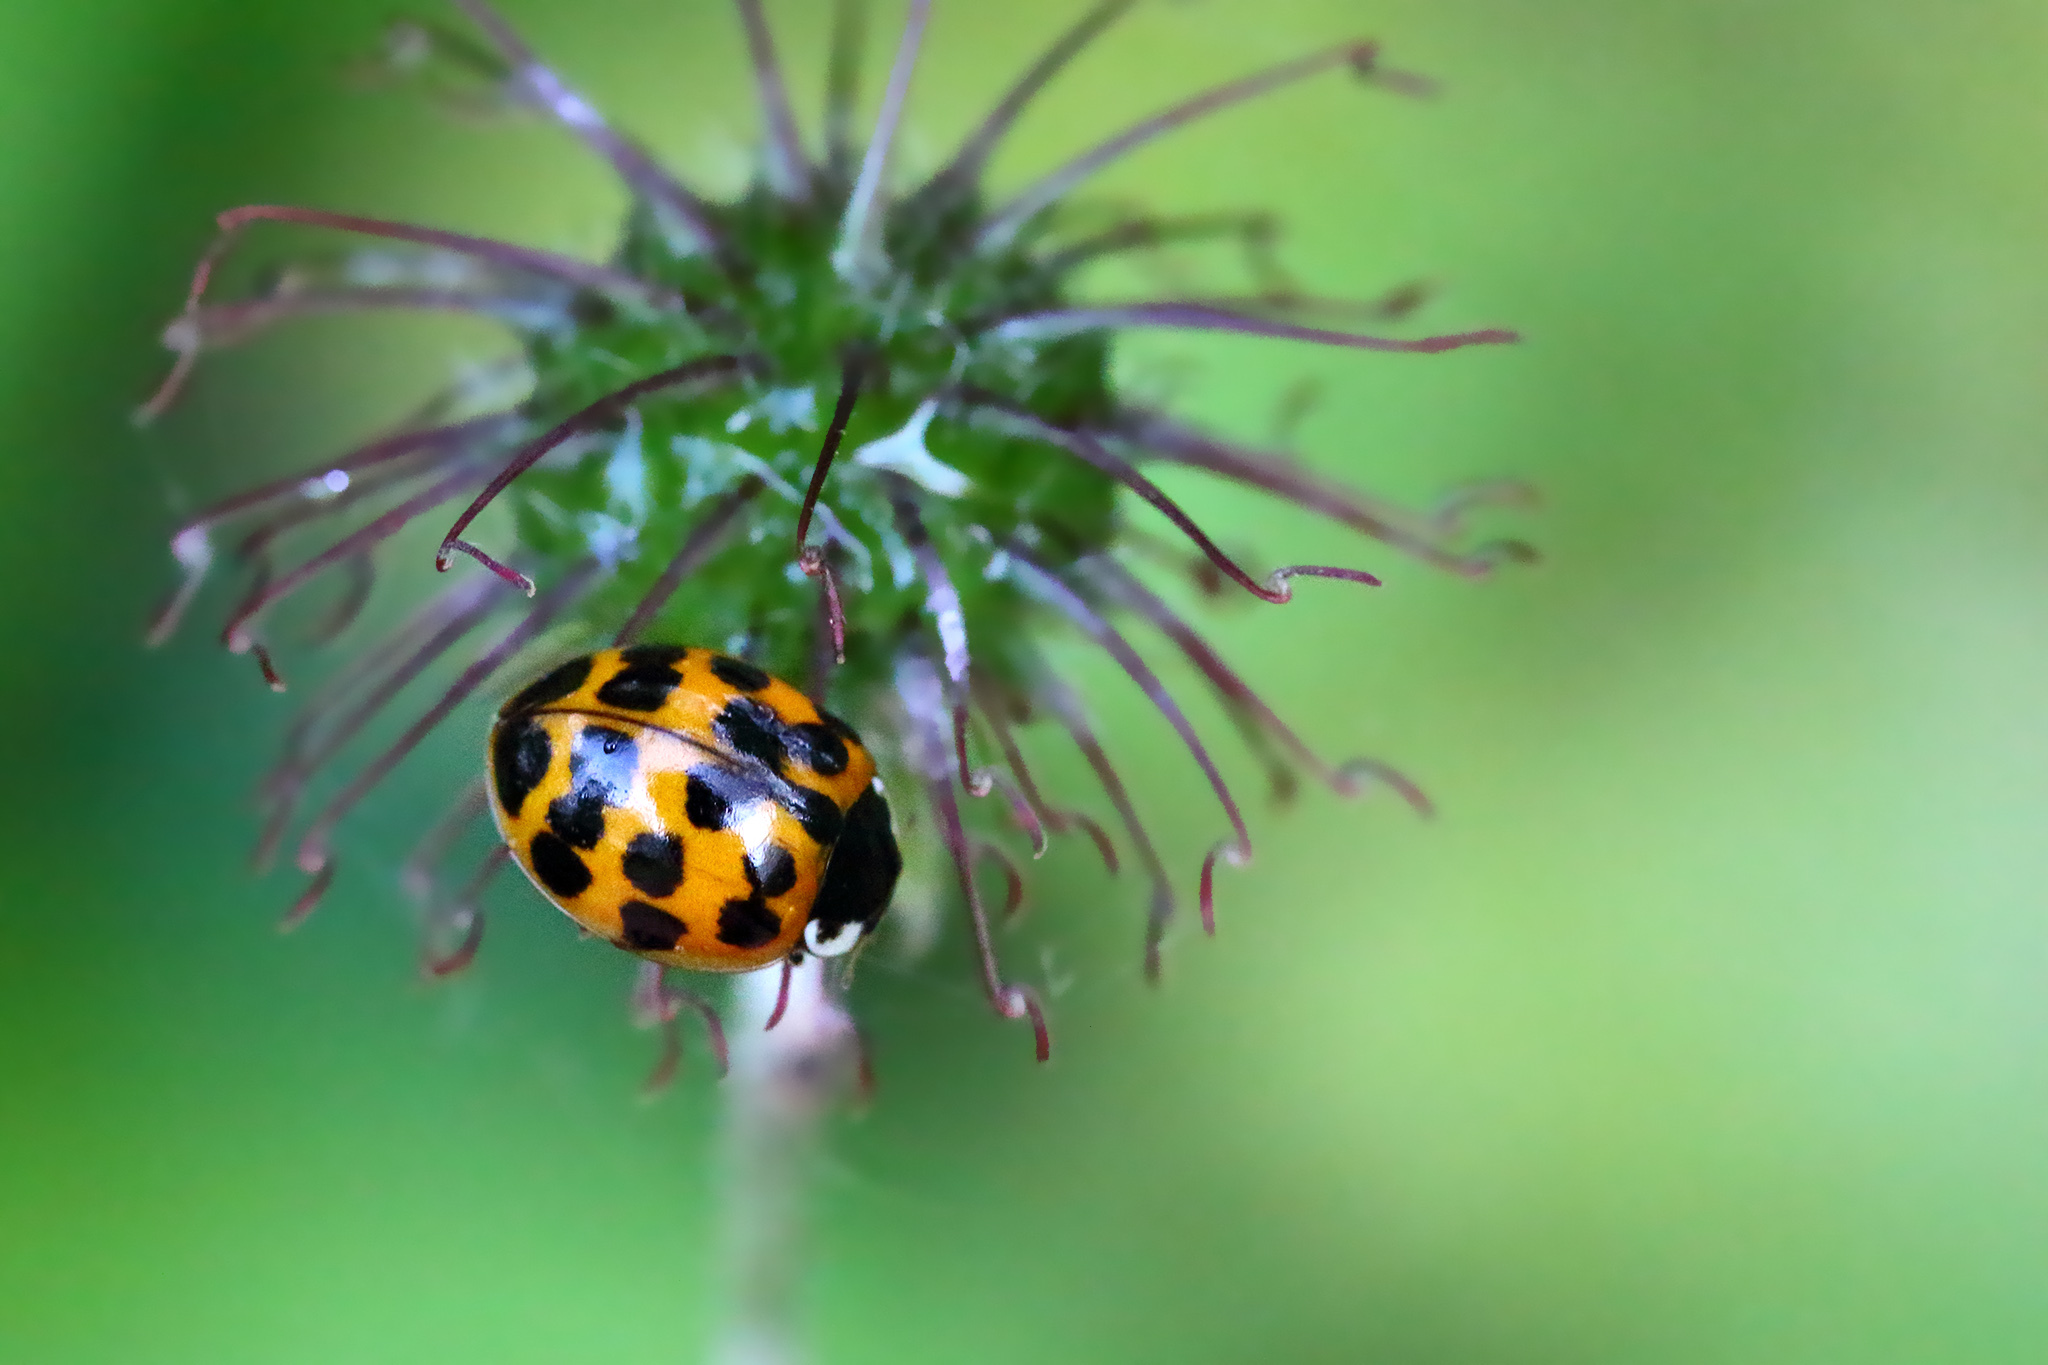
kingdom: Animalia
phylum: Arthropoda
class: Insecta
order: Coleoptera
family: Coccinellidae
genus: Harmonia
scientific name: Harmonia axyridis
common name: Harlequin ladybird
